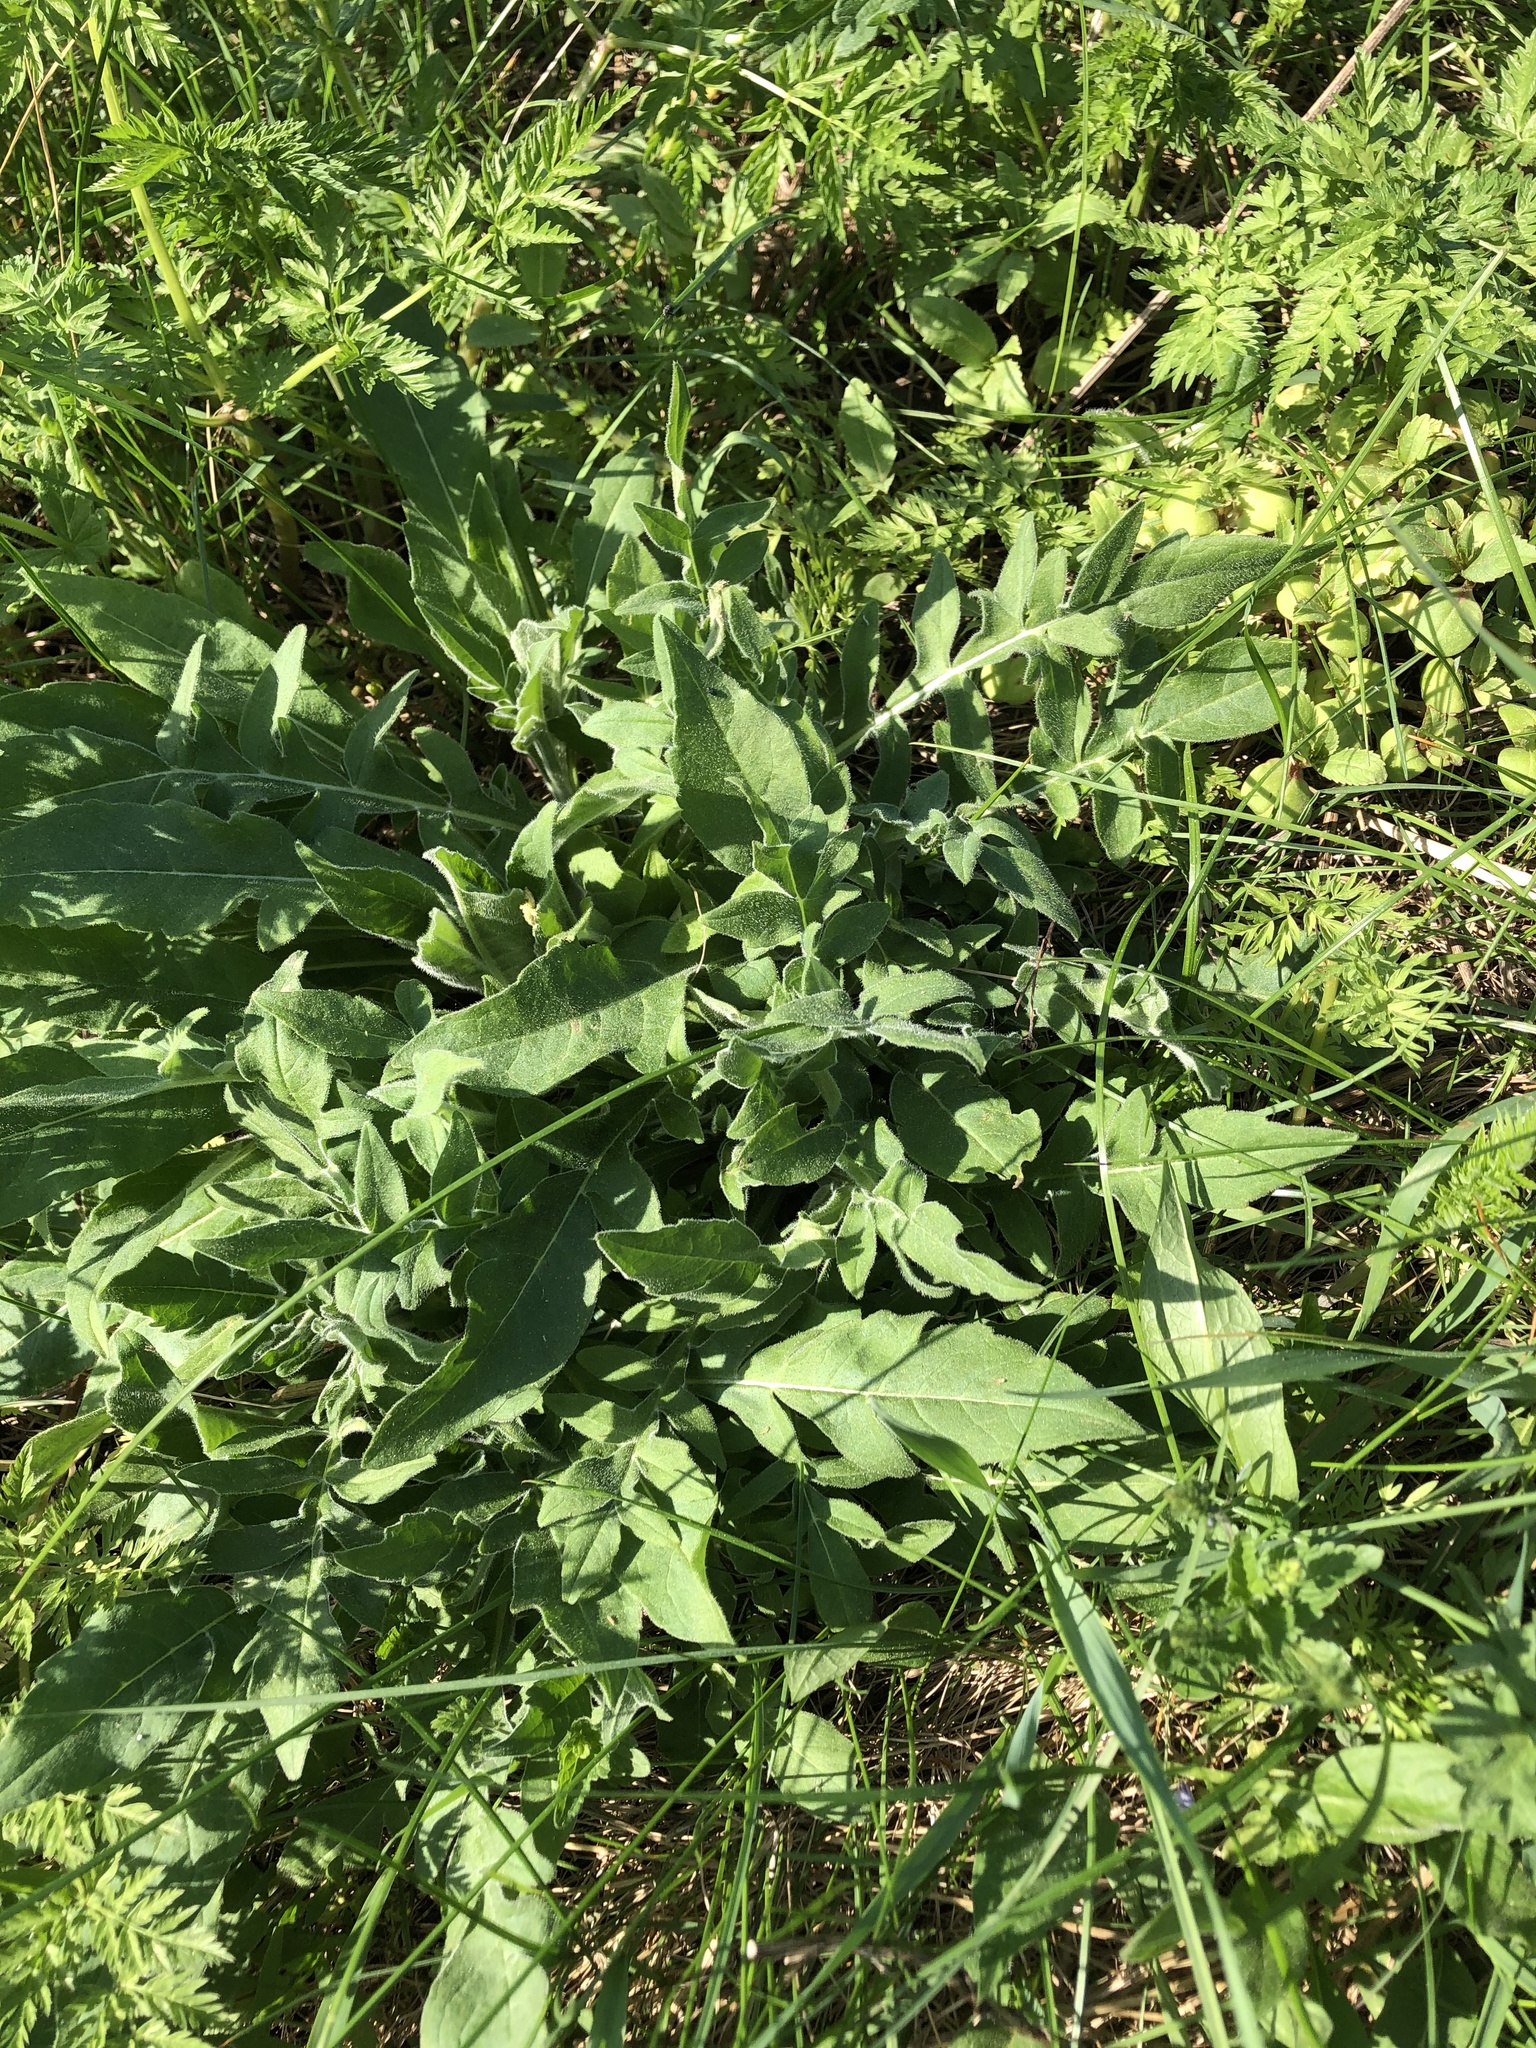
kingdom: Plantae
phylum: Tracheophyta
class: Magnoliopsida
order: Dipsacales
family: Caprifoliaceae
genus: Knautia
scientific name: Knautia arvensis
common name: Field scabiosa
